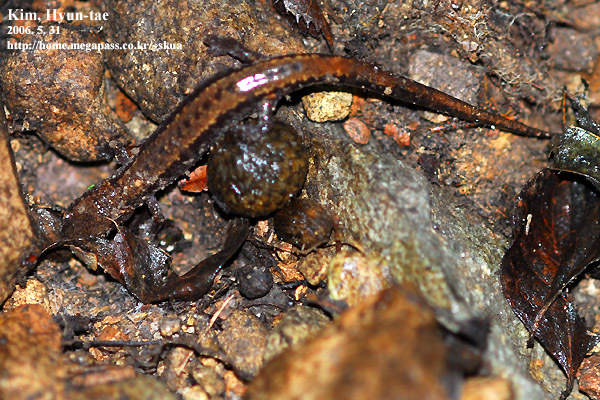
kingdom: Animalia
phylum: Chordata
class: Amphibia
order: Caudata
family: Plethodontidae
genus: Karsenia
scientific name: Karsenia koreana
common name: Korean crevice salamander
